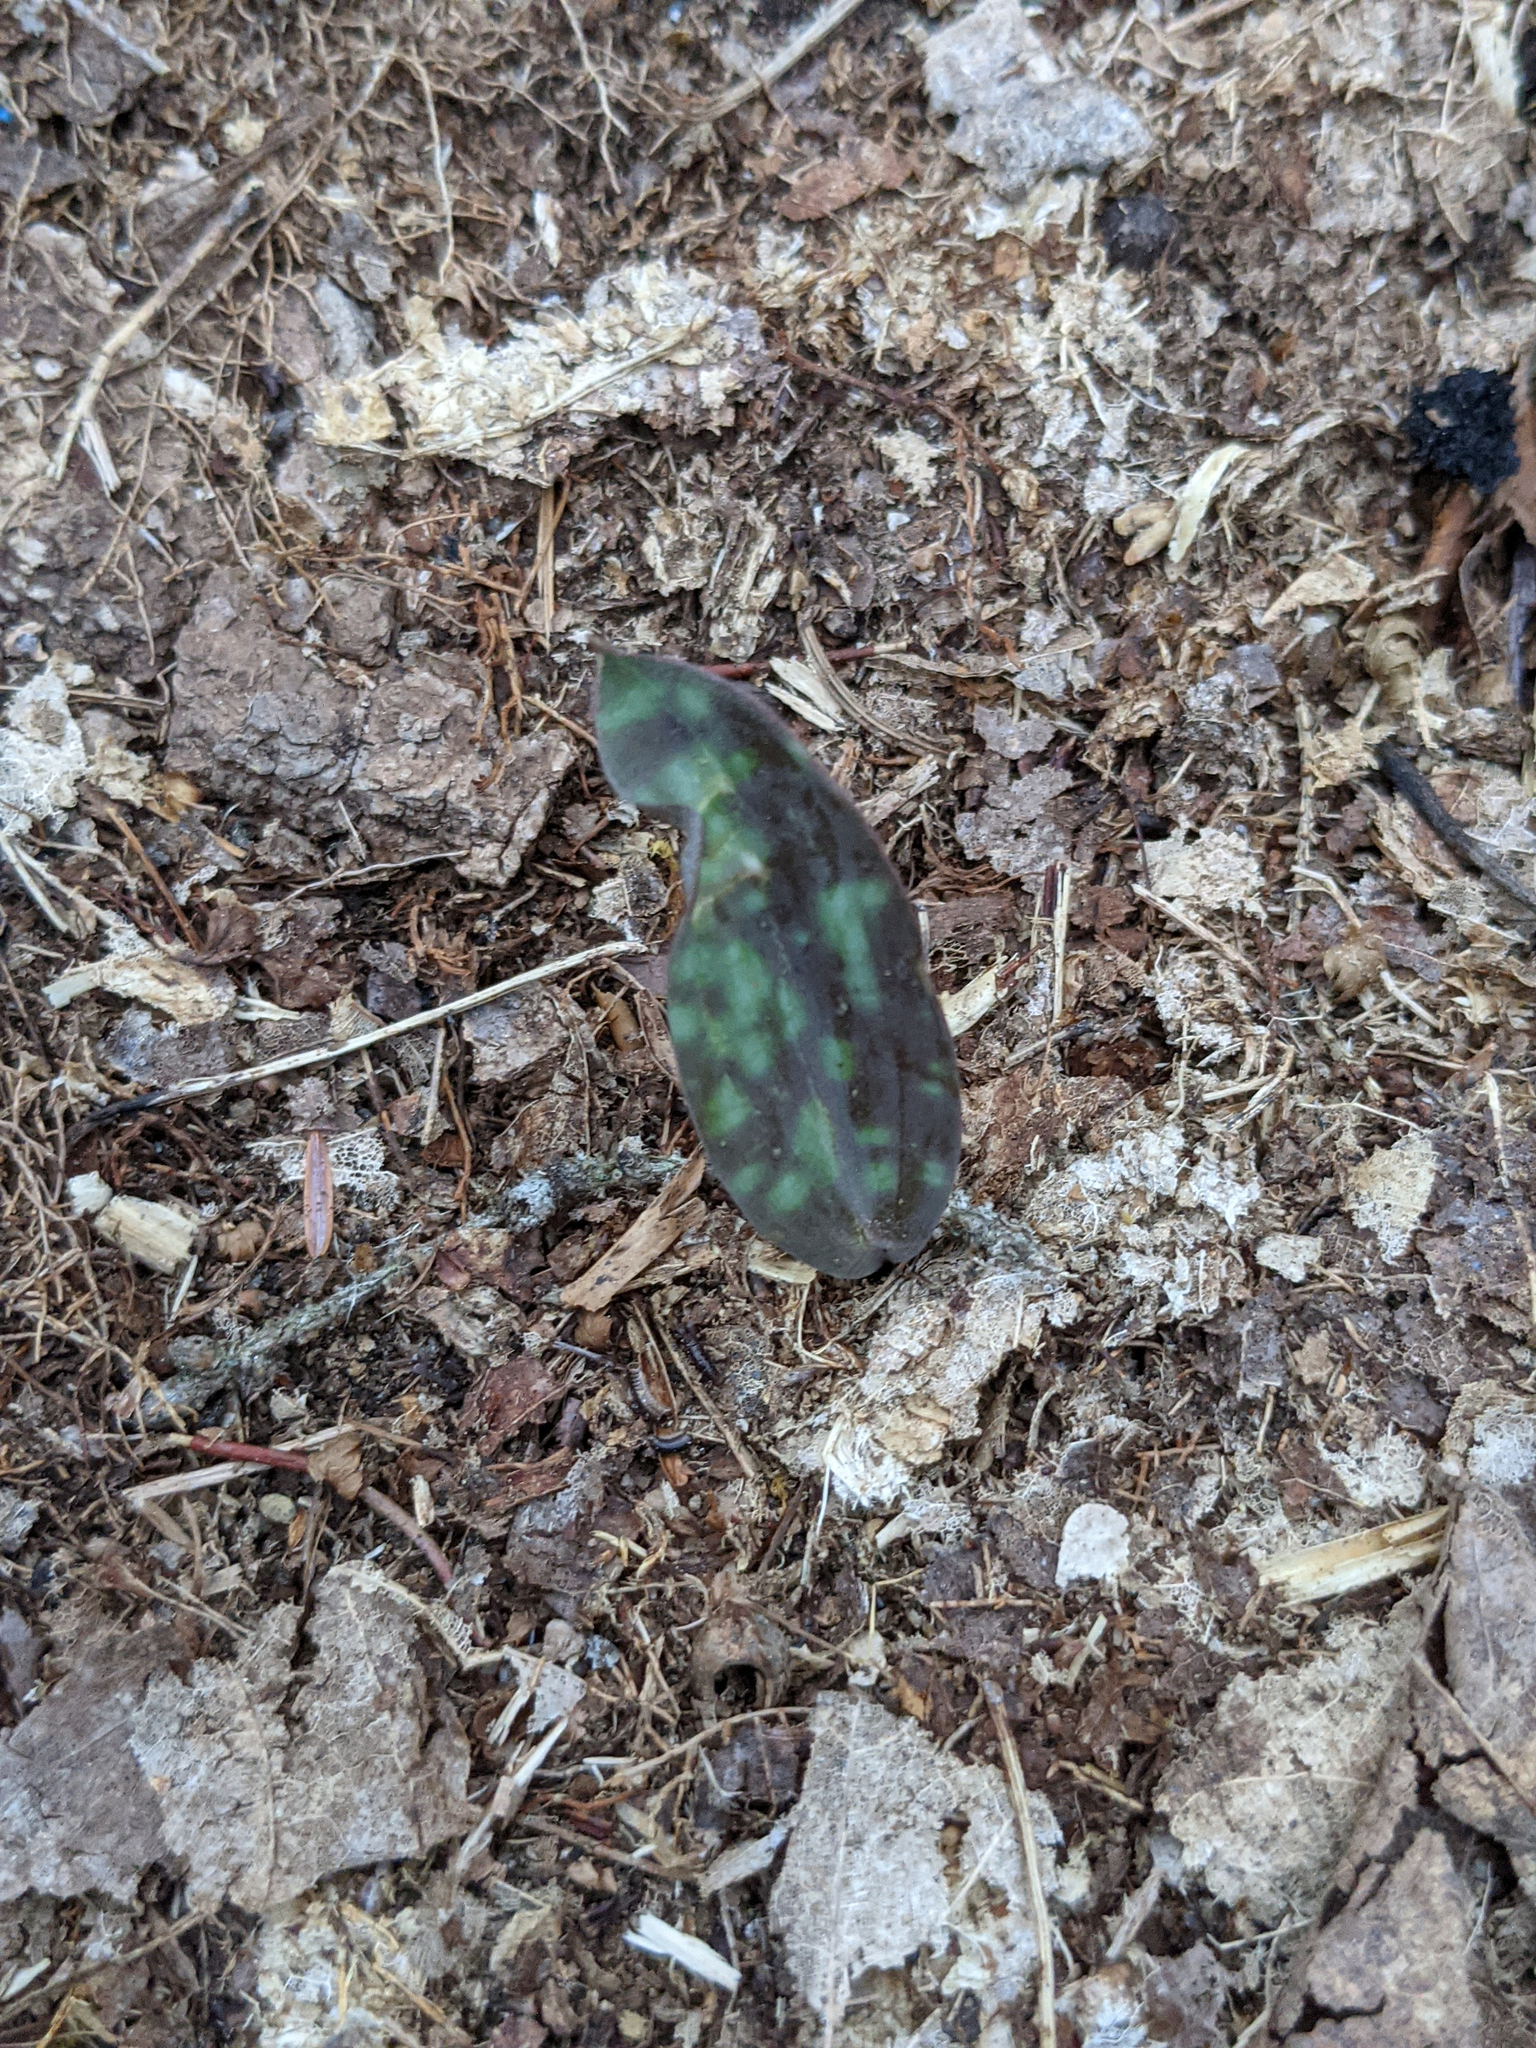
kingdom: Plantae
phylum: Tracheophyta
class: Liliopsida
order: Liliales
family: Liliaceae
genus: Erythronium
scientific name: Erythronium americanum
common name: Yellow adder's-tongue
